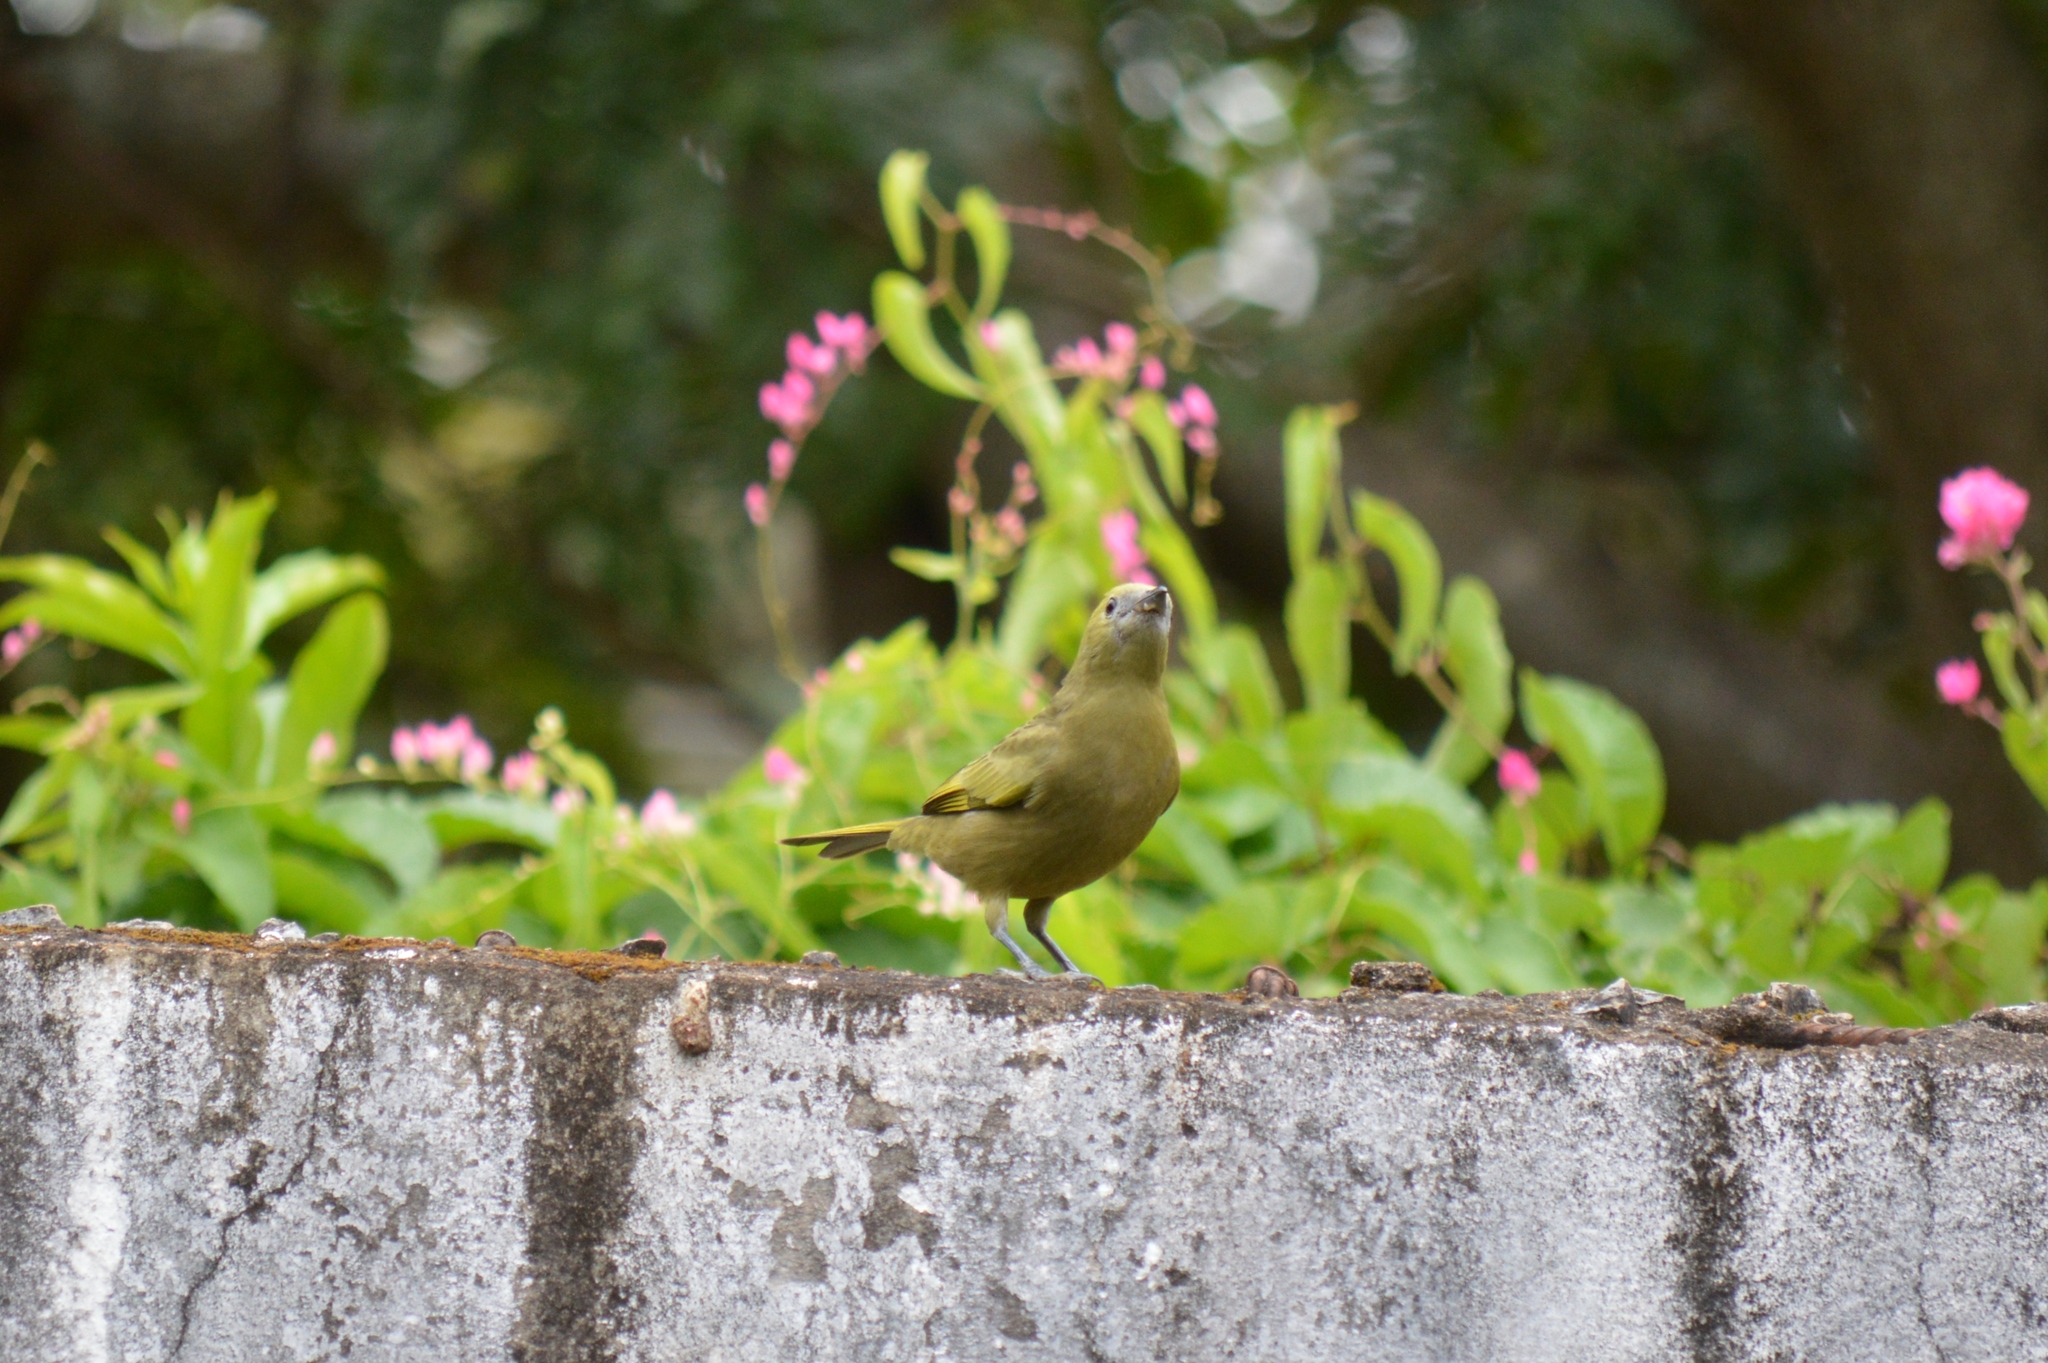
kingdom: Animalia
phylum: Chordata
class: Aves
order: Passeriformes
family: Thraupidae
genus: Thraupis
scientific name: Thraupis palmarum
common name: Palm tanager
